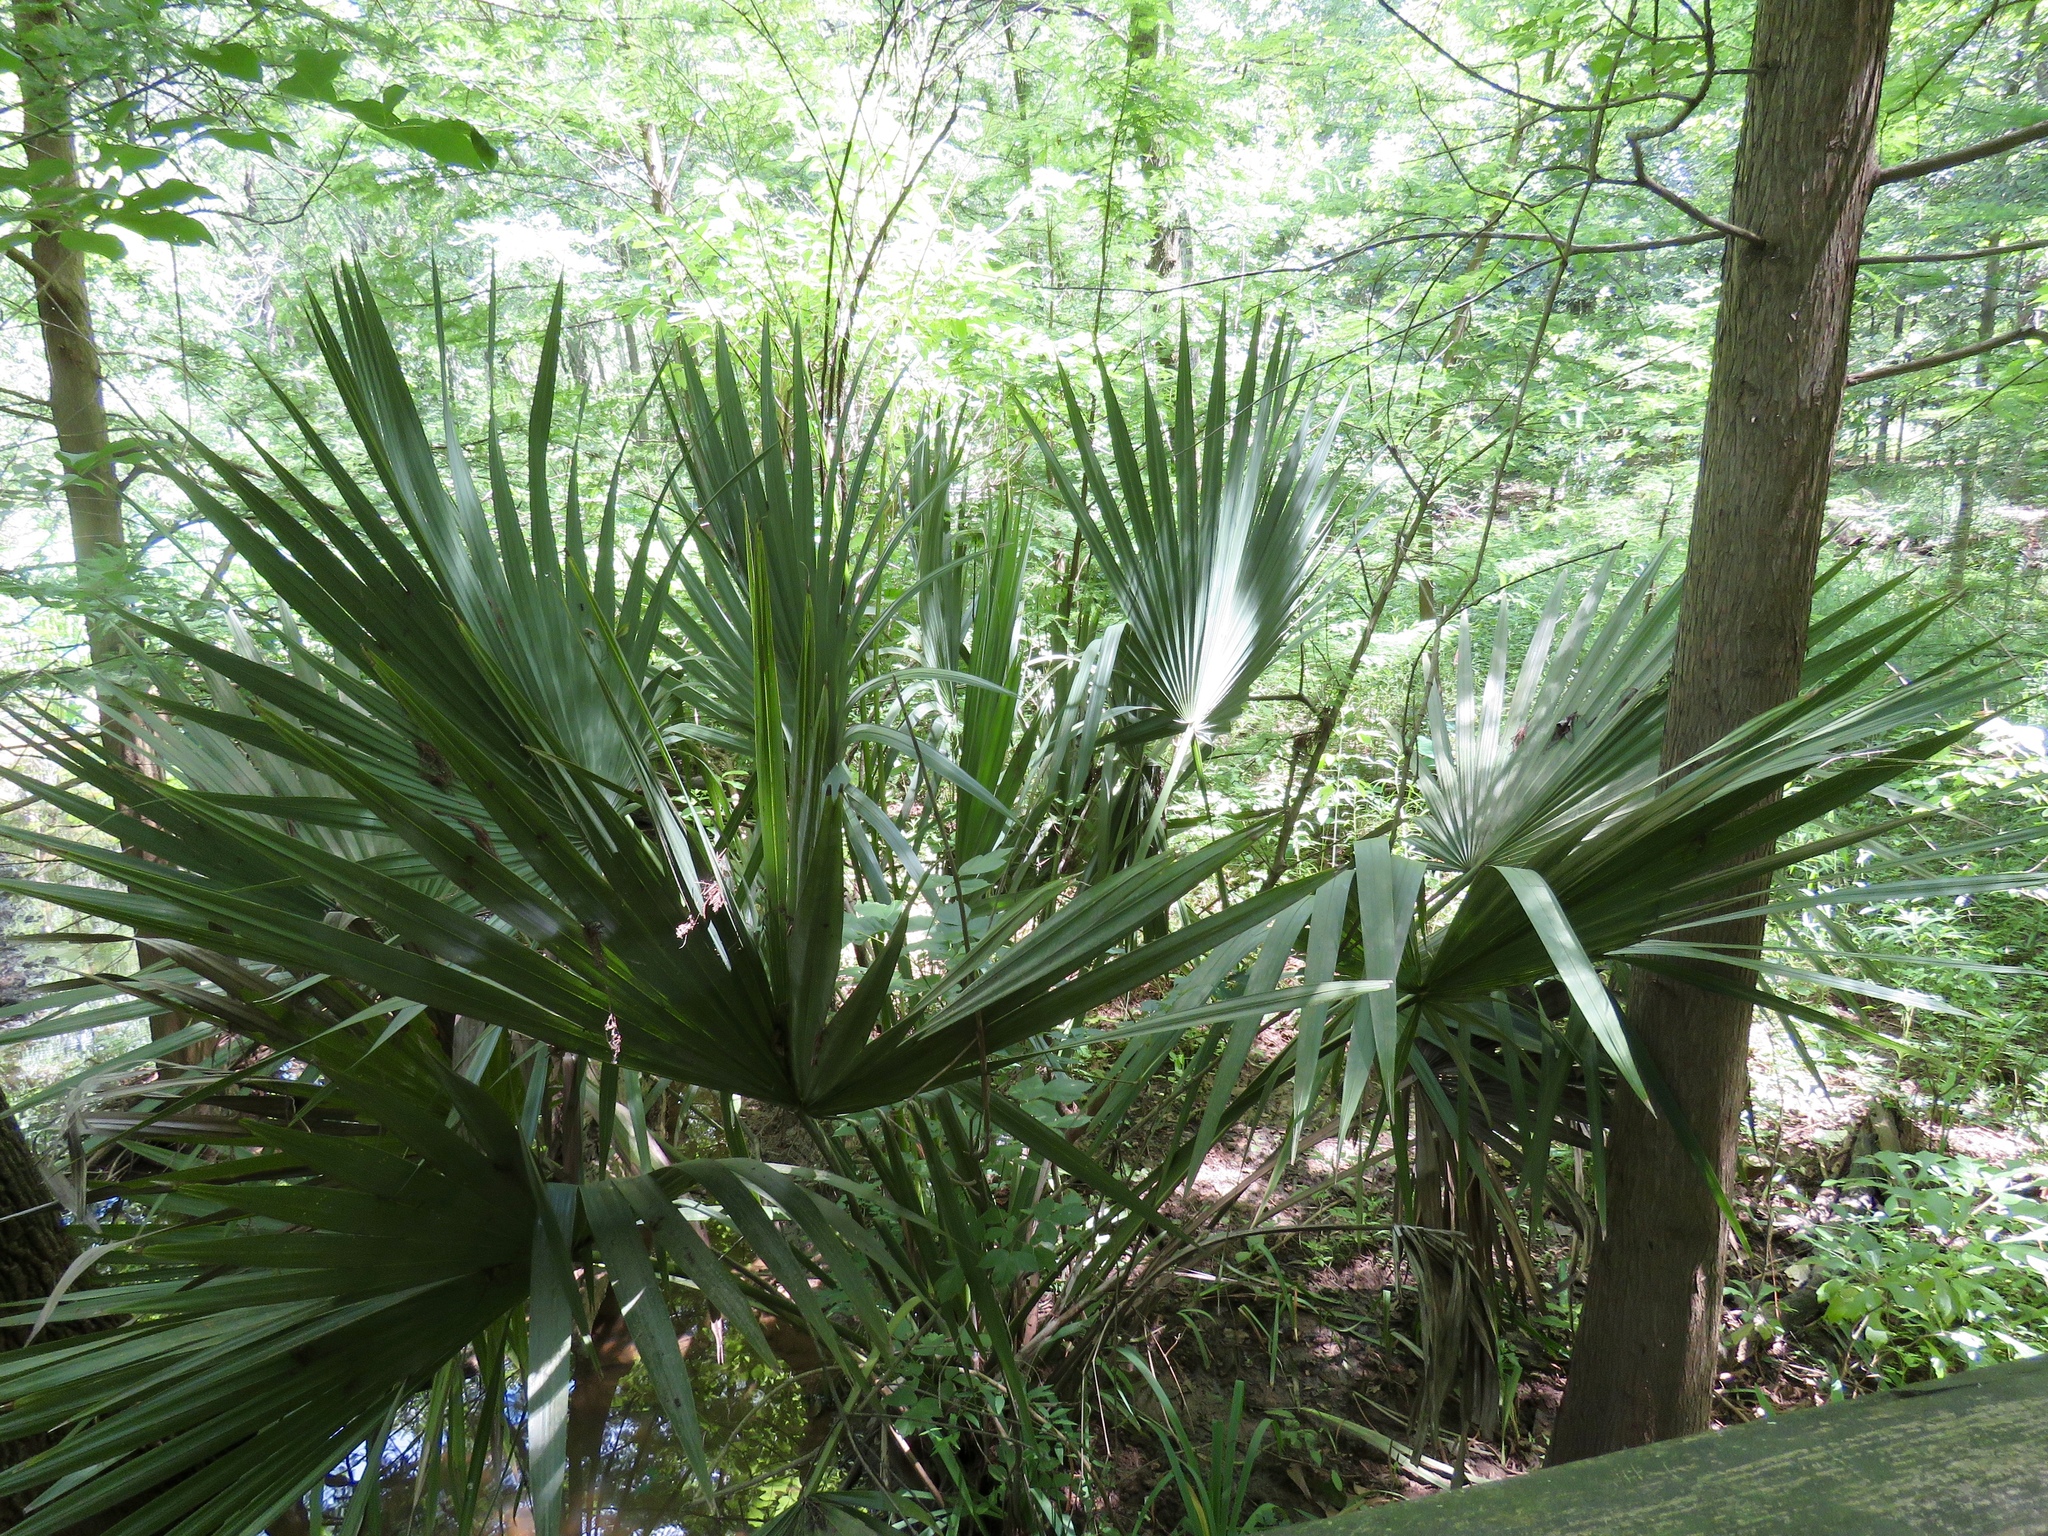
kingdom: Plantae
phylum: Tracheophyta
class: Liliopsida
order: Arecales
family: Arecaceae
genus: Sabal
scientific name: Sabal minor
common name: Dwarf palmetto
